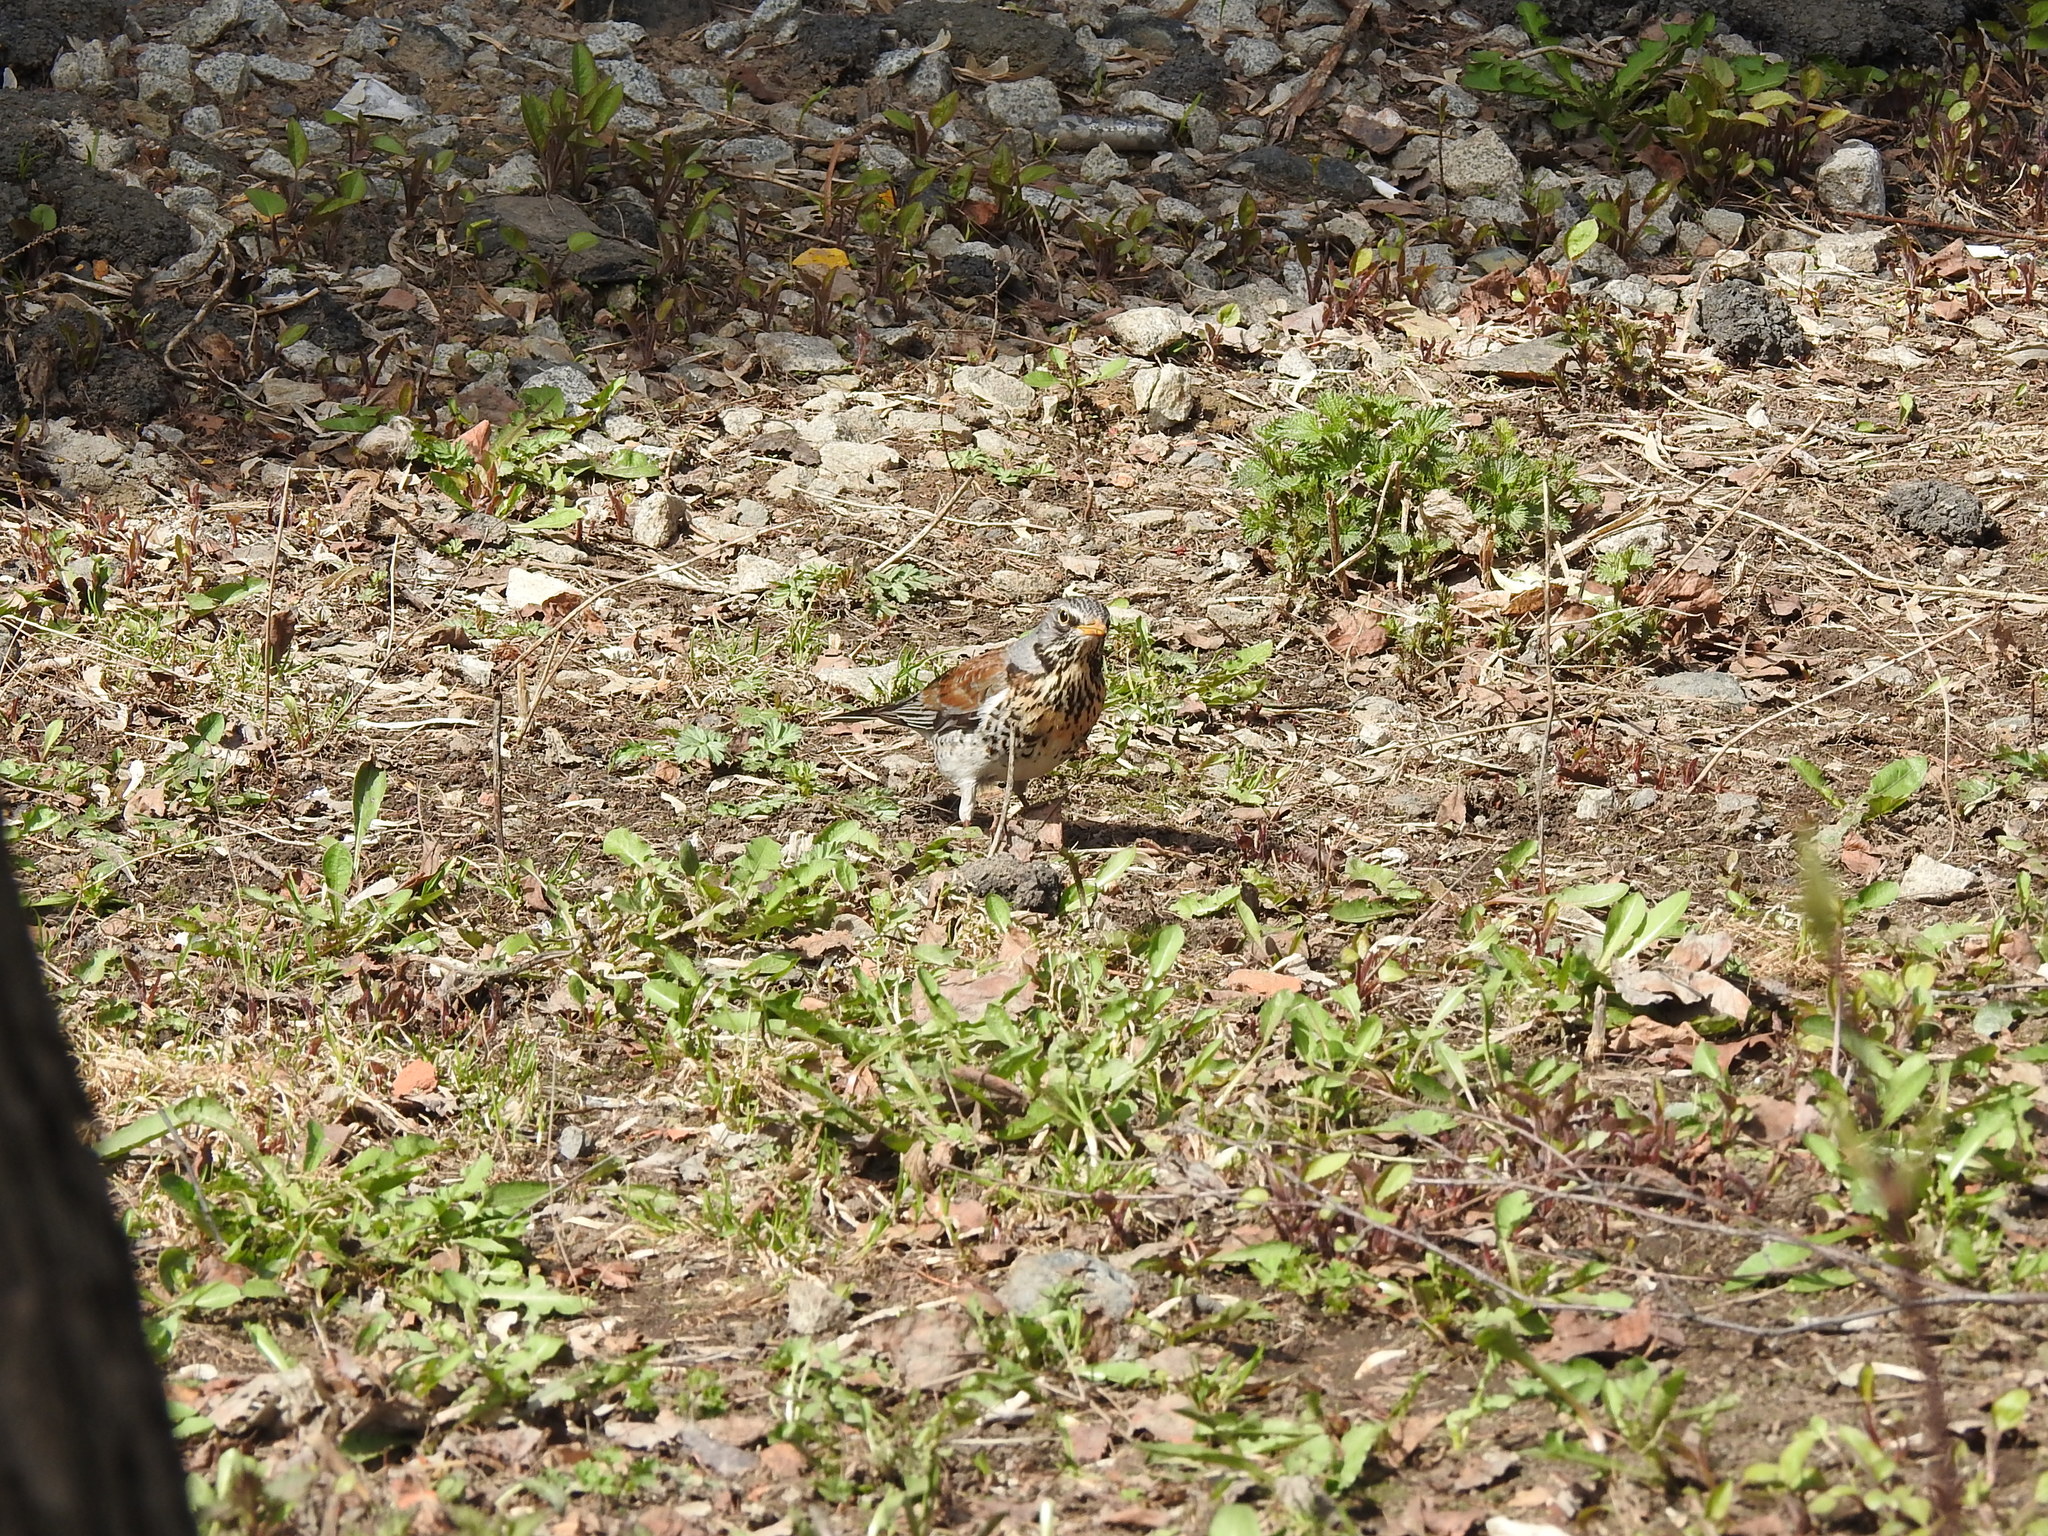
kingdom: Animalia
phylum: Chordata
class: Aves
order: Passeriformes
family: Turdidae
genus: Turdus
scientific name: Turdus pilaris
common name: Fieldfare
